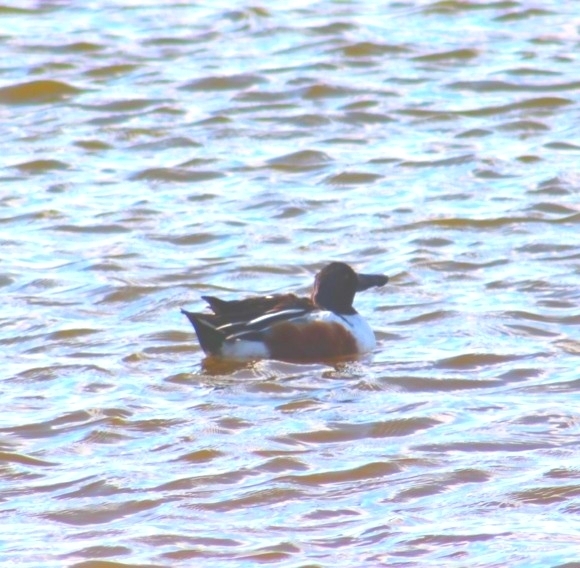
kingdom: Animalia
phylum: Chordata
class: Aves
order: Anseriformes
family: Anatidae
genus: Spatula
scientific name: Spatula clypeata
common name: Northern shoveler
